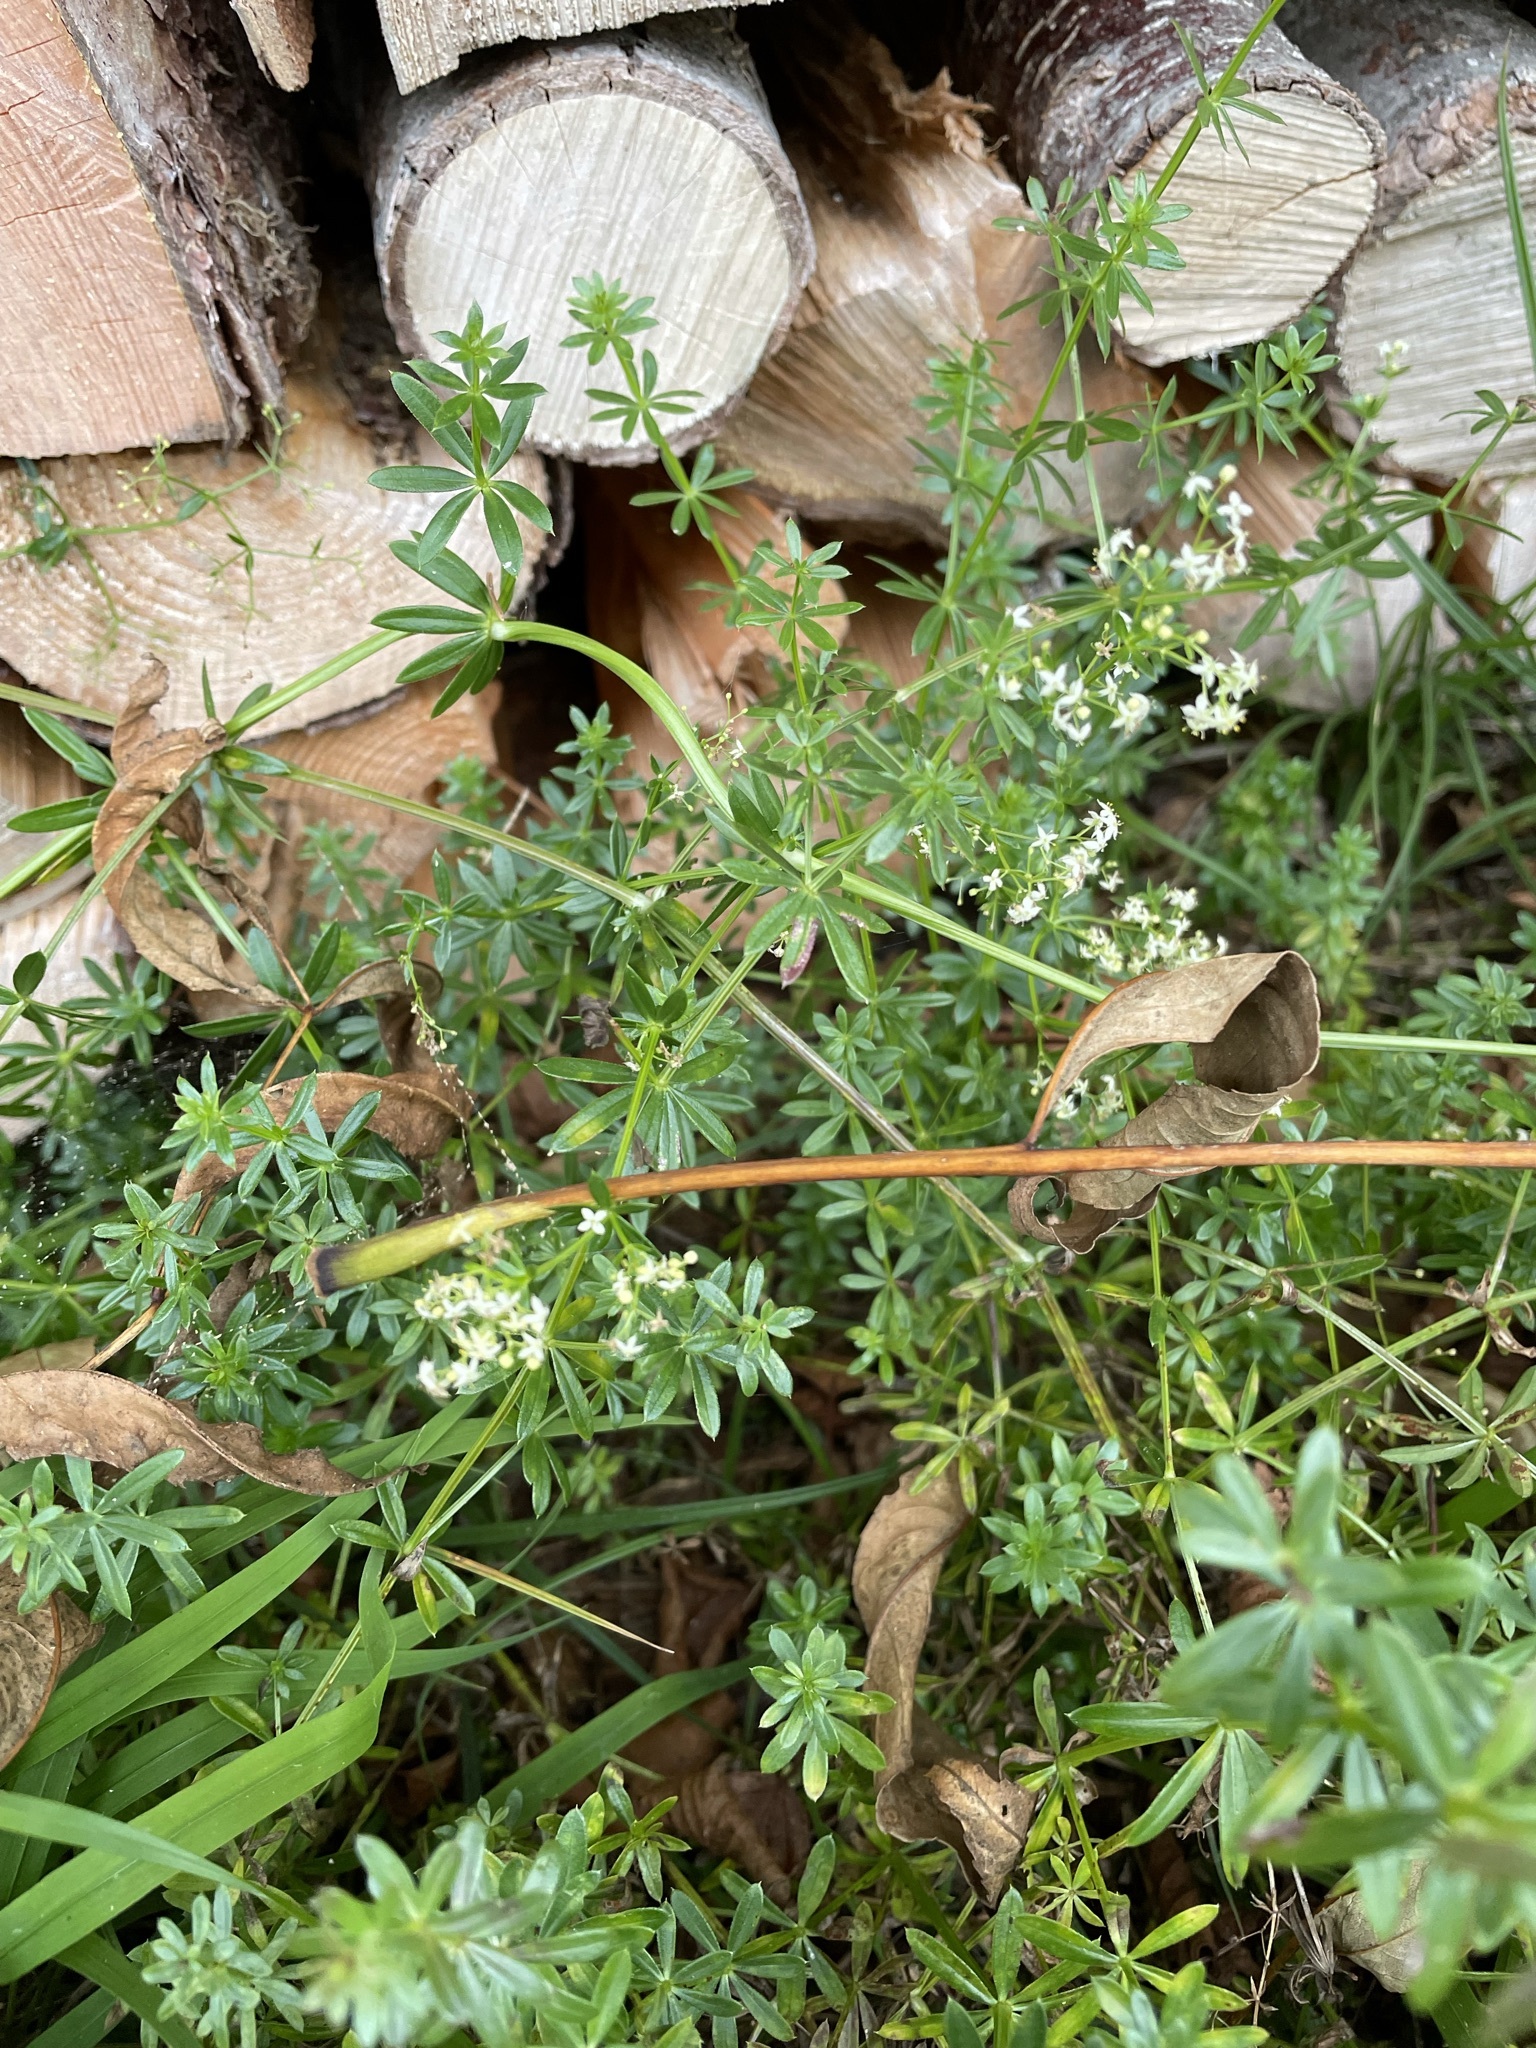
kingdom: Plantae
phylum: Tracheophyta
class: Magnoliopsida
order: Gentianales
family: Rubiaceae
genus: Galium
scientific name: Galium album
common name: White bedstraw
